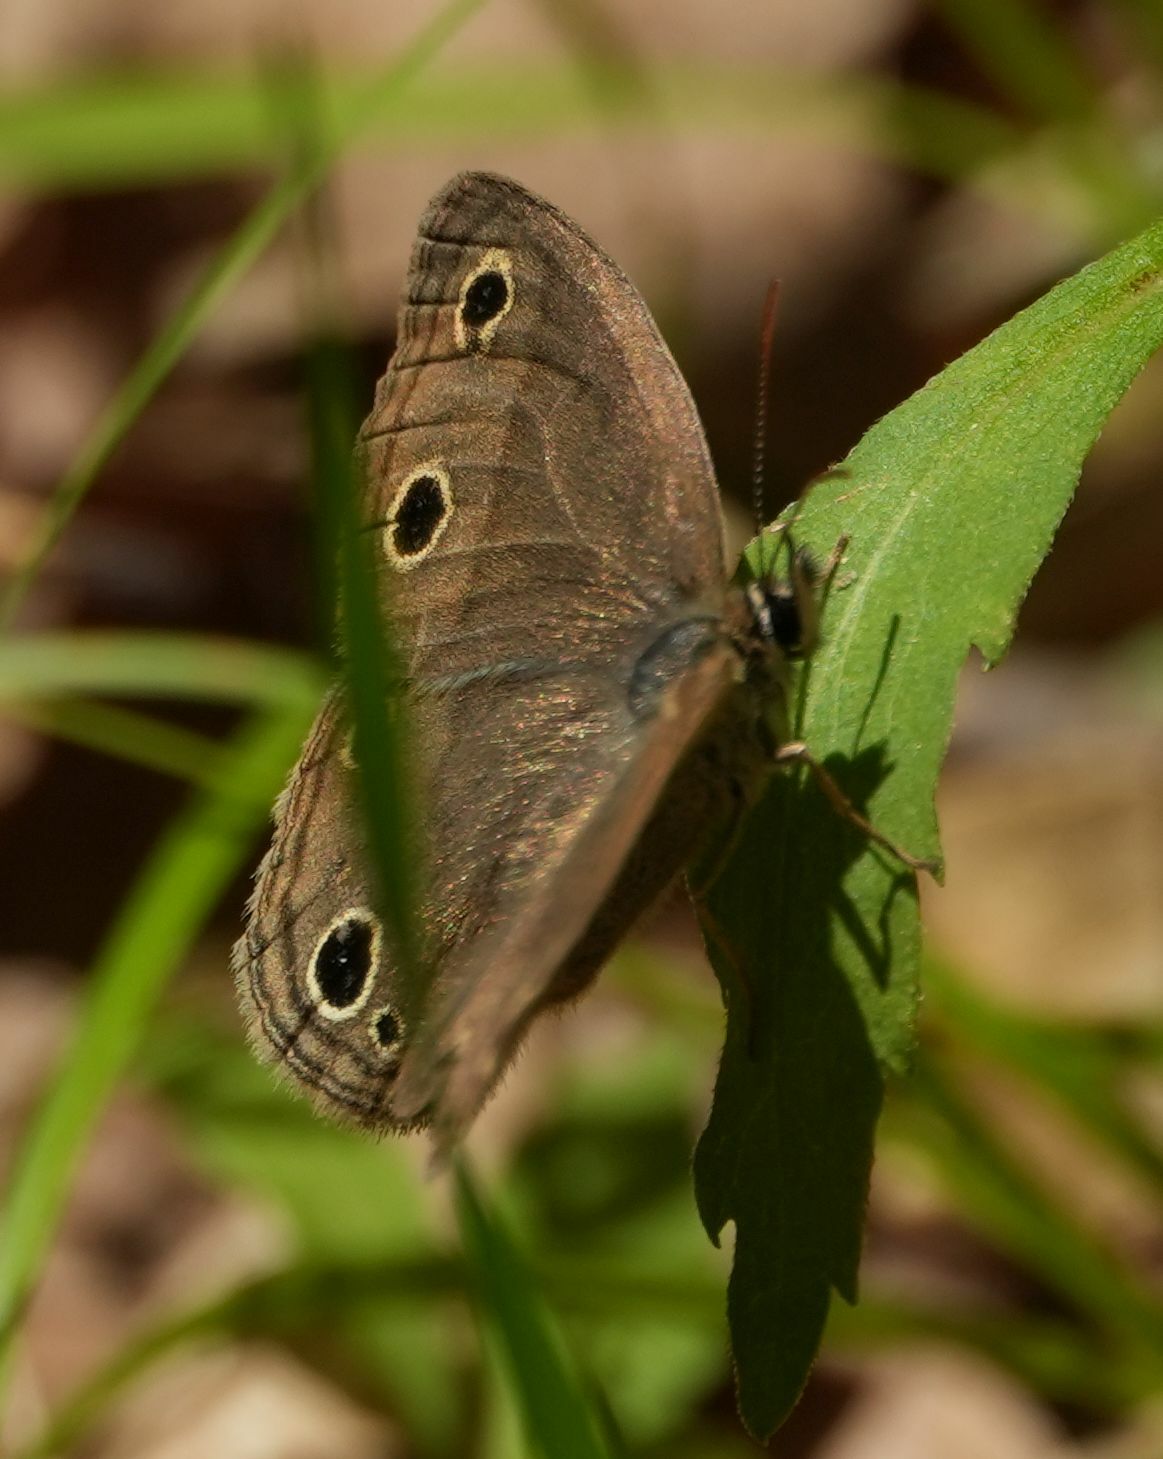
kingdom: Animalia
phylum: Arthropoda
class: Insecta
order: Lepidoptera
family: Nymphalidae
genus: Euptychia
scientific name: Euptychia cymela
